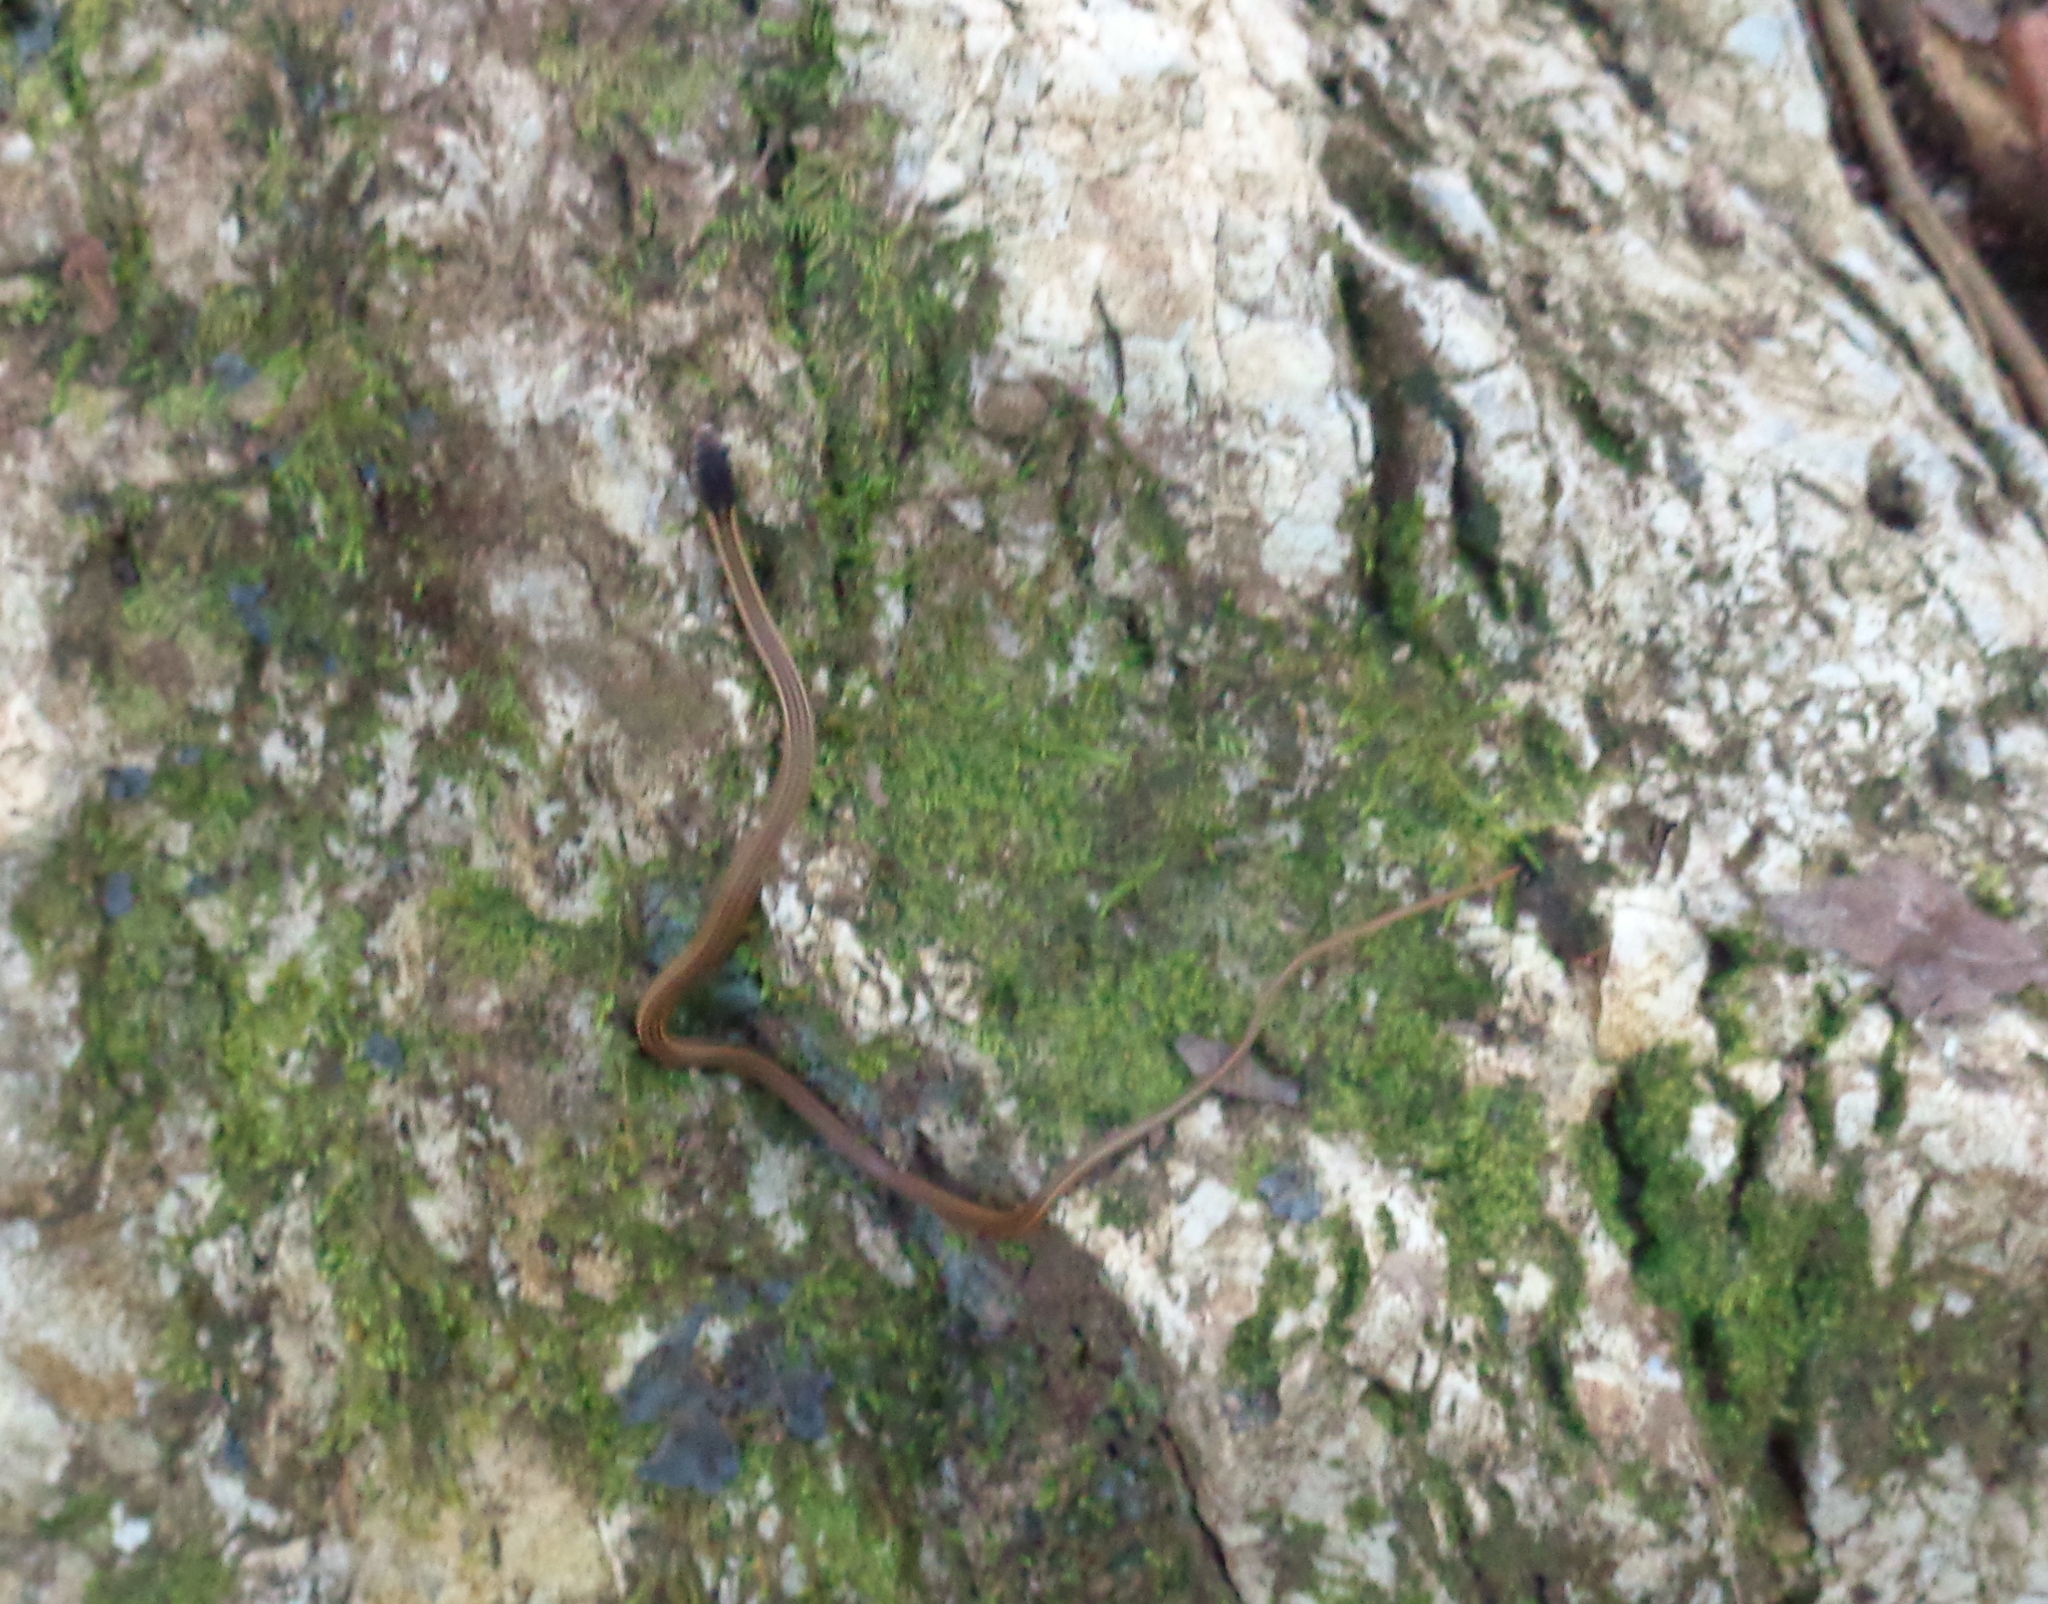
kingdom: Animalia
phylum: Chordata
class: Squamata
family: Colubridae
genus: Rhadinaea
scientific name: Rhadinaea montana
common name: Nuevo leon graceful brown snake
